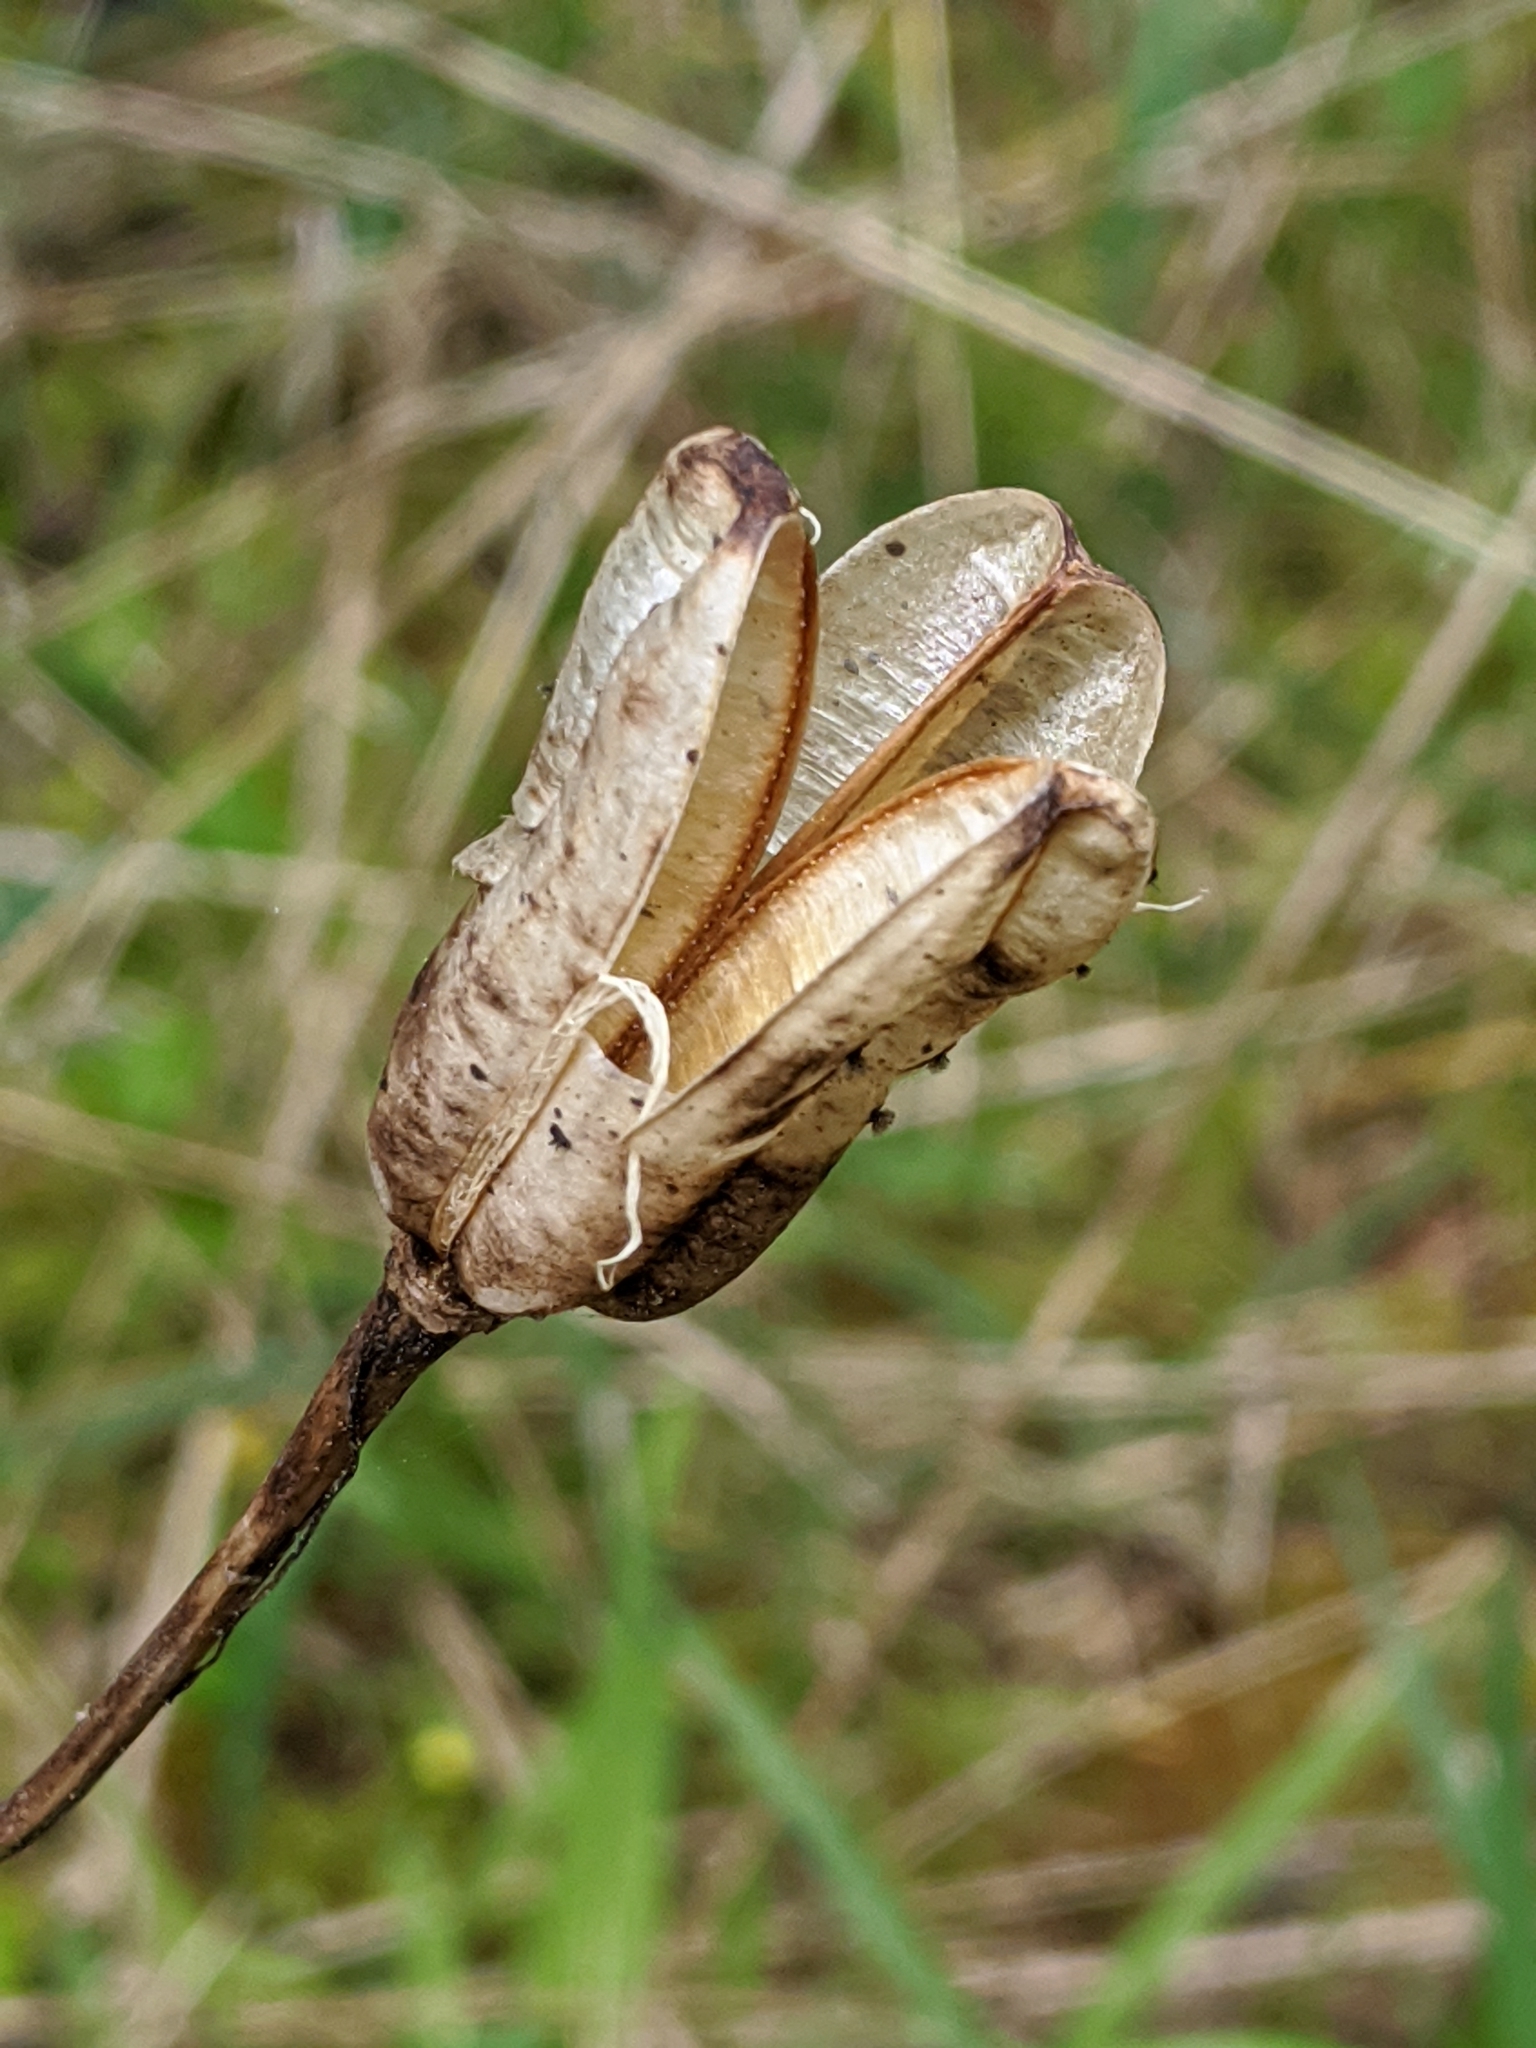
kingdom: Plantae
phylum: Tracheophyta
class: Liliopsida
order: Liliales
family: Liliaceae
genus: Lilium
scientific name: Lilium columbianum
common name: Columbia lily
